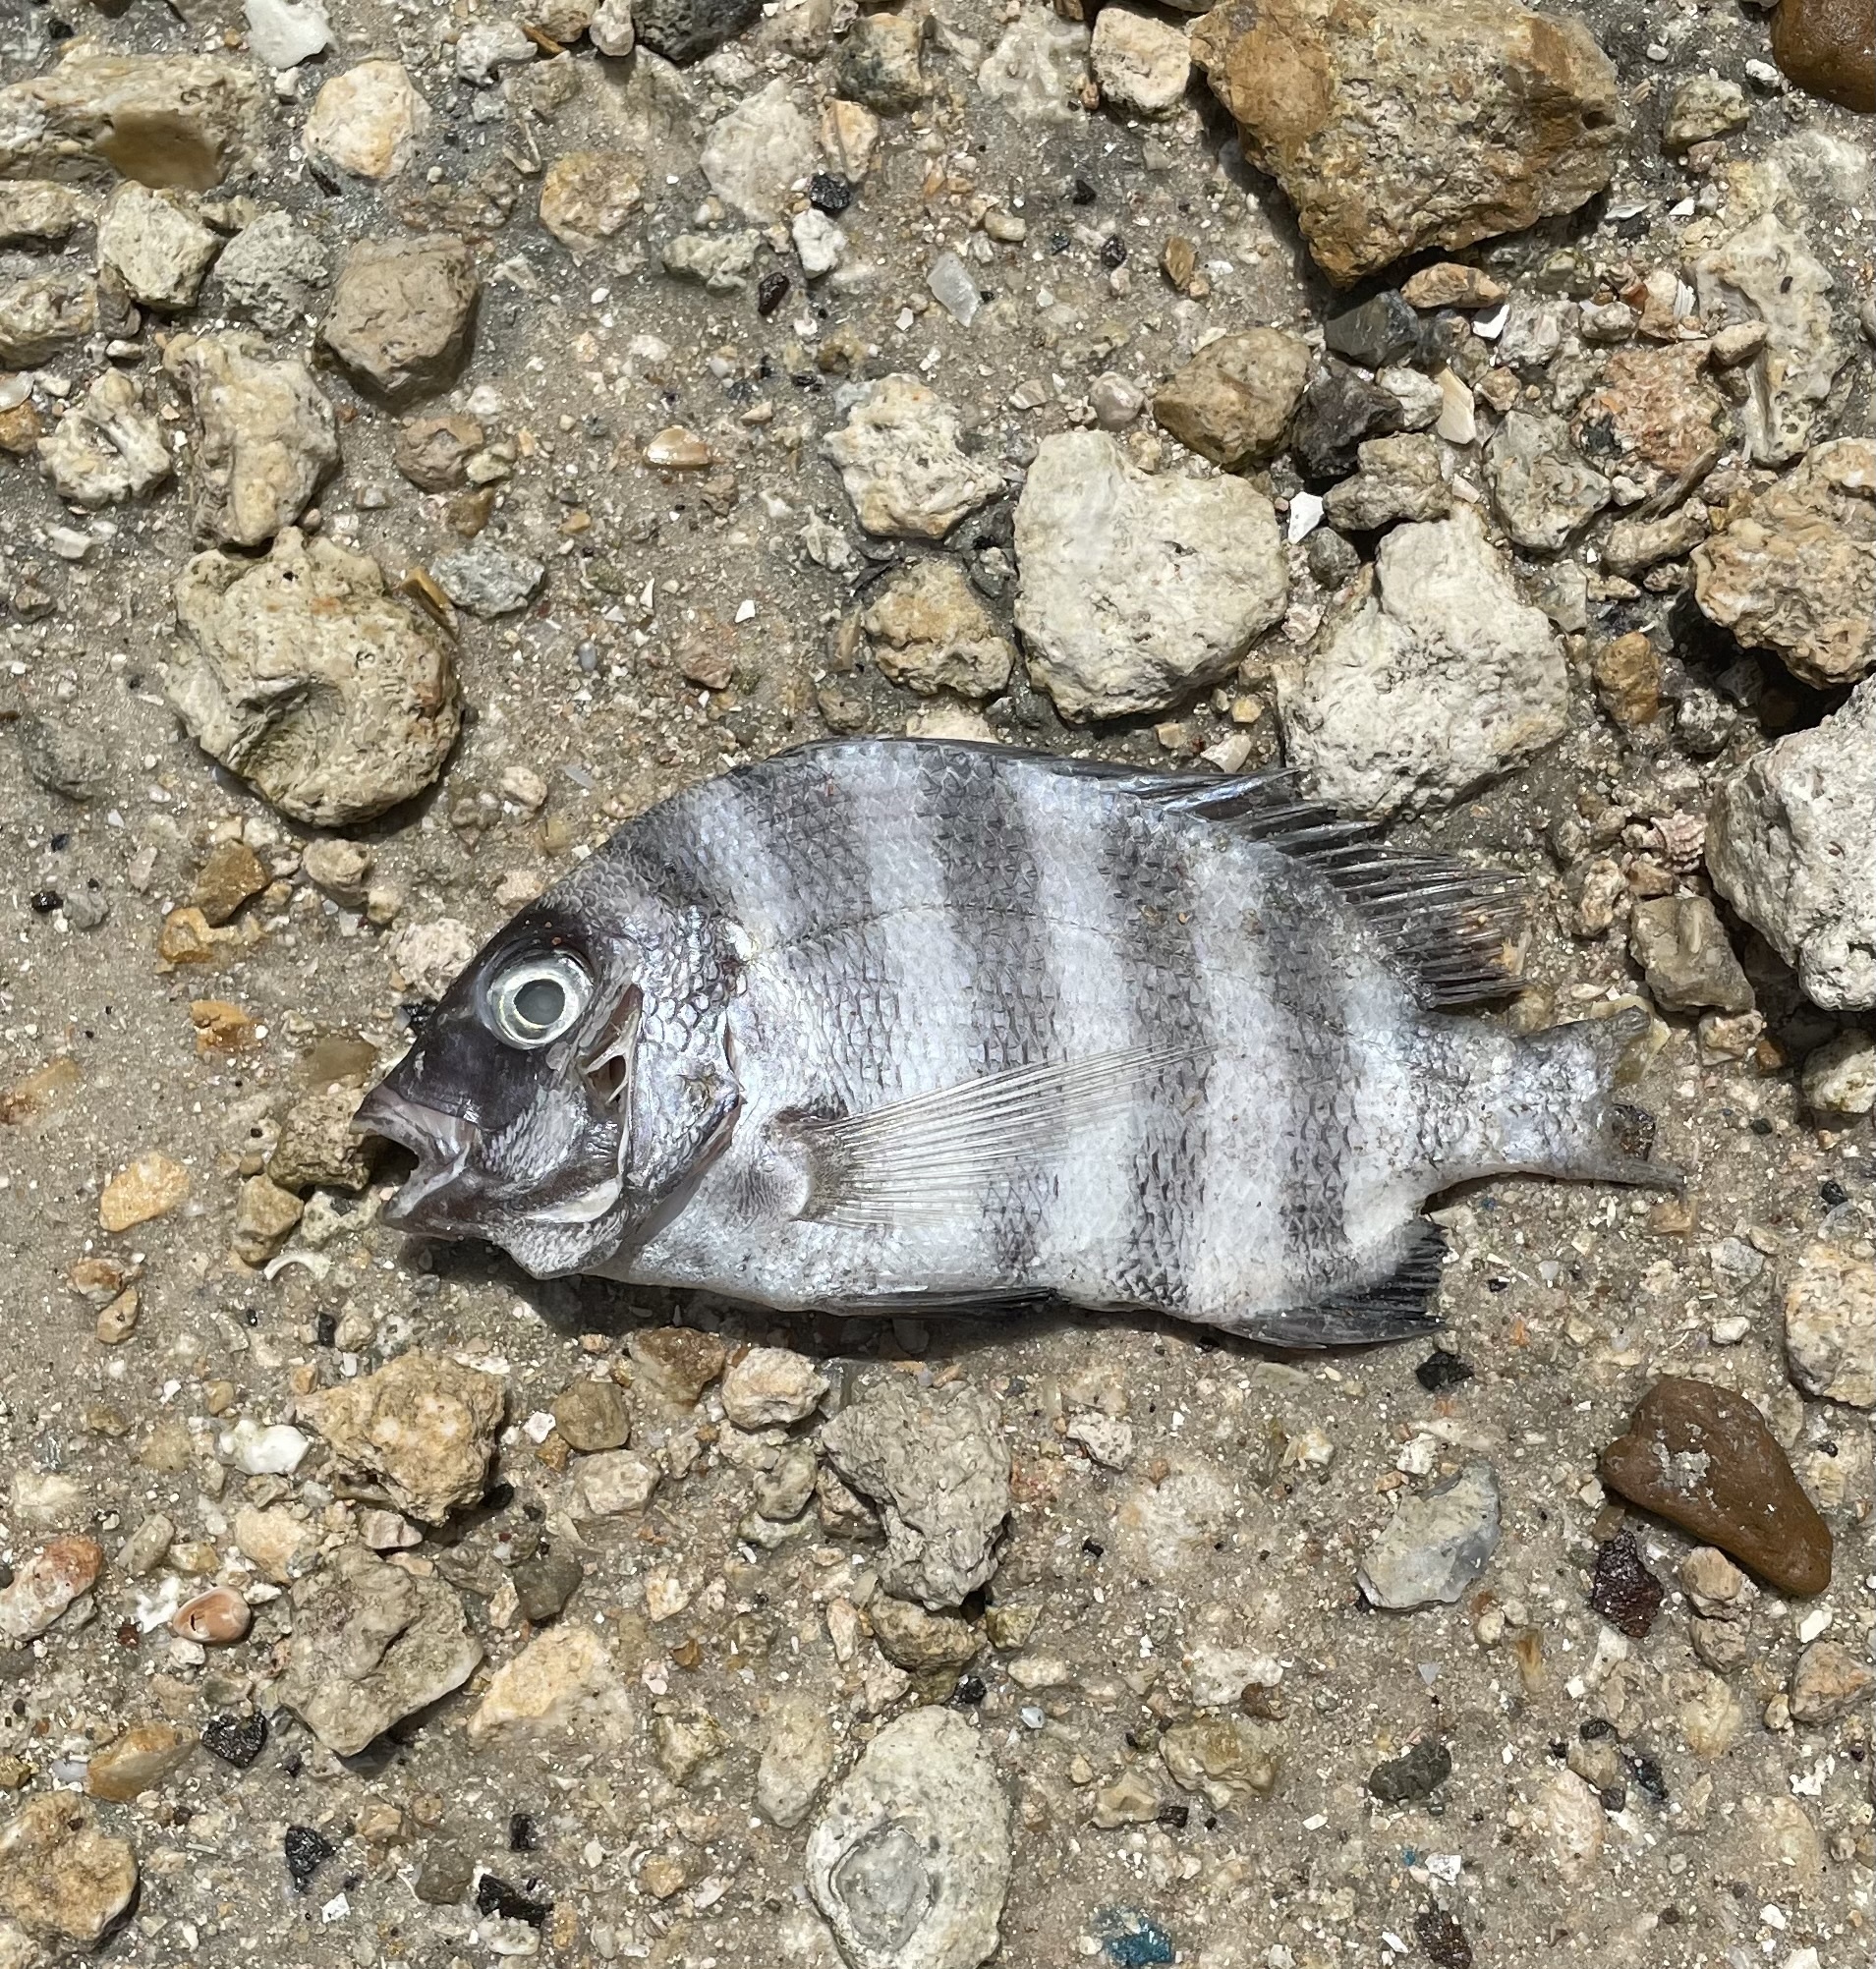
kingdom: Animalia
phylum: Chordata
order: Perciformes
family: Sparidae
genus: Archosargus
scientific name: Archosargus probatocephalus
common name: Sheepshead
